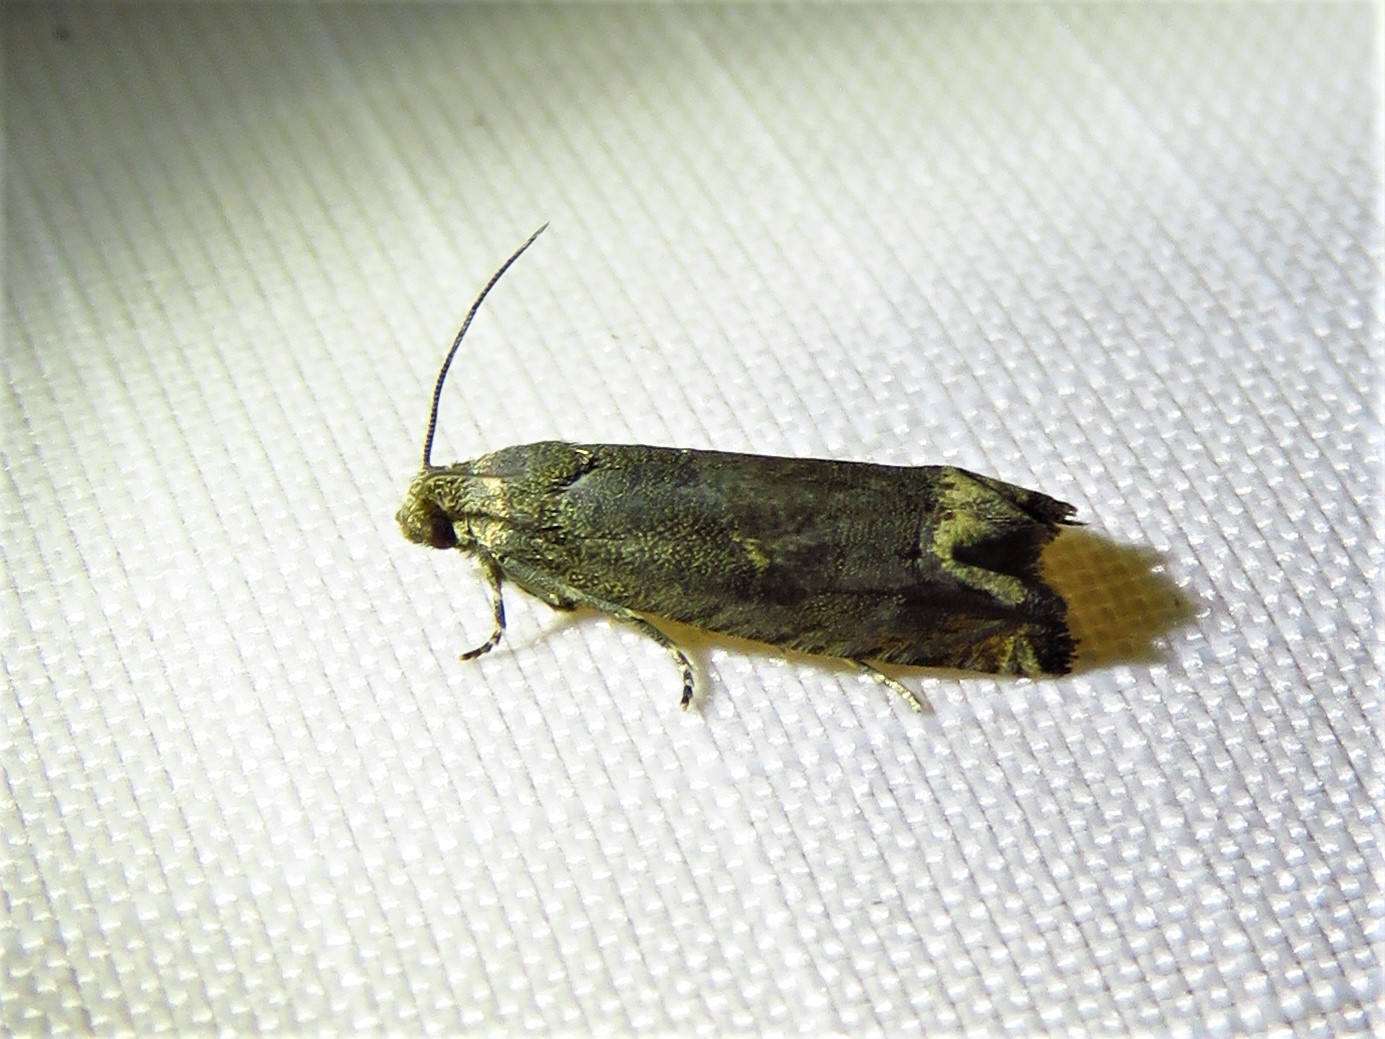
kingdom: Animalia
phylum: Arthropoda
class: Insecta
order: Lepidoptera
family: Tortricidae
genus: Epiblema
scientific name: Epiblema strenuana
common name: Ragweed borer moth
